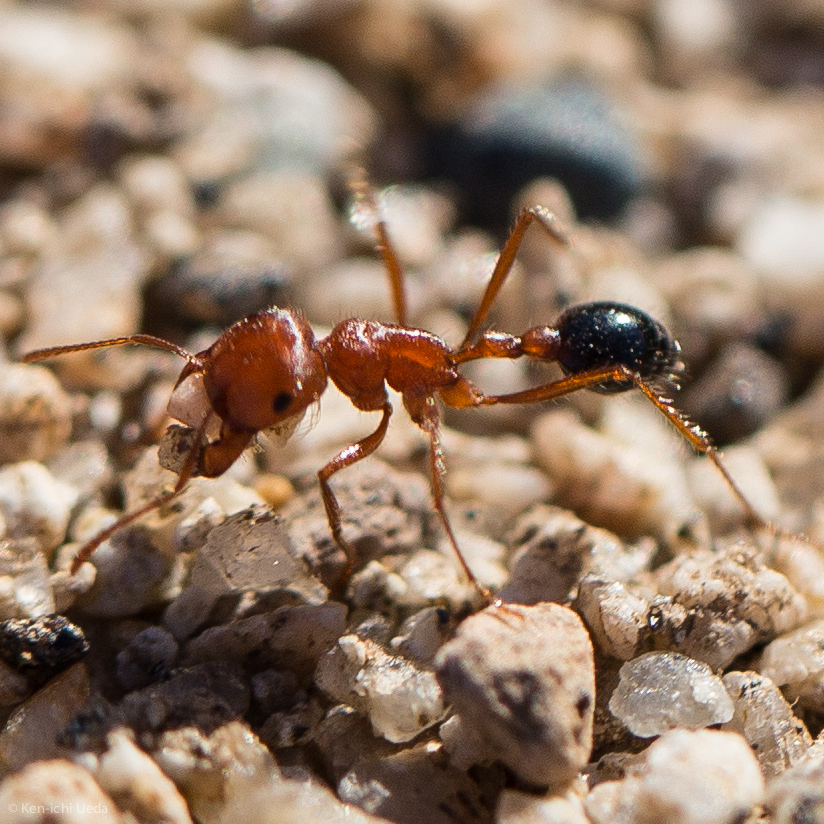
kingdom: Animalia
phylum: Arthropoda
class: Insecta
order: Hymenoptera
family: Formicidae
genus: Pogonomyrmex
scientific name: Pogonomyrmex californicus
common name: California harvester ant
